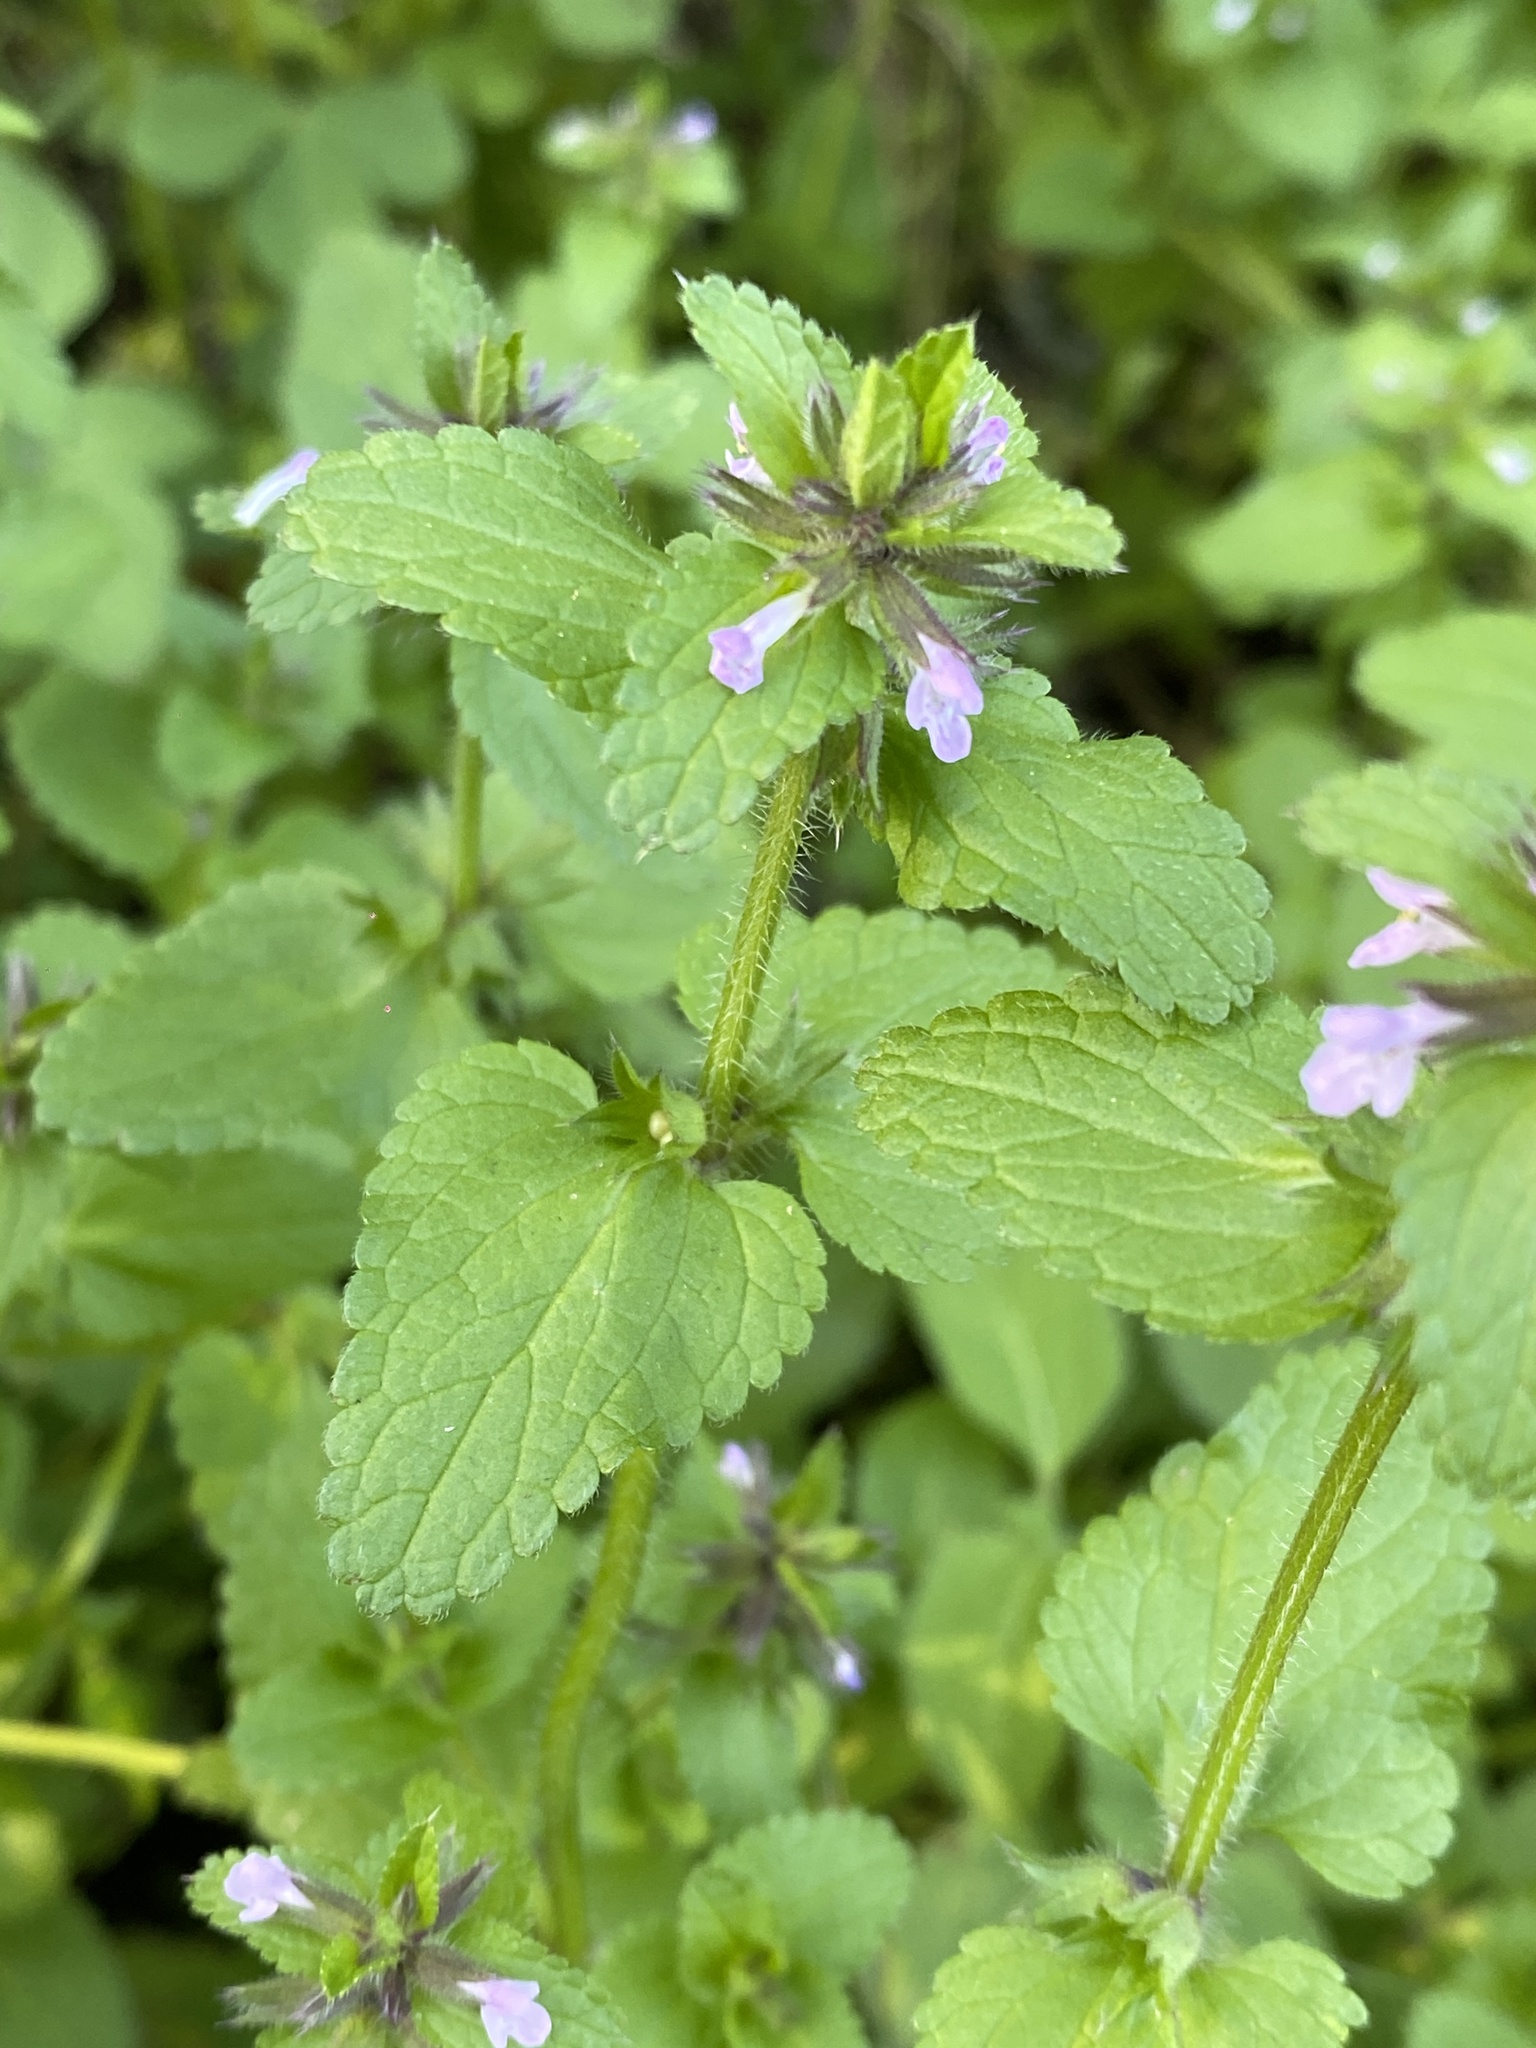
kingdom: Plantae
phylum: Tracheophyta
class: Magnoliopsida
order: Lamiales
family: Lamiaceae
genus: Stachys
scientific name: Stachys arvensis
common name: Field woundwort
